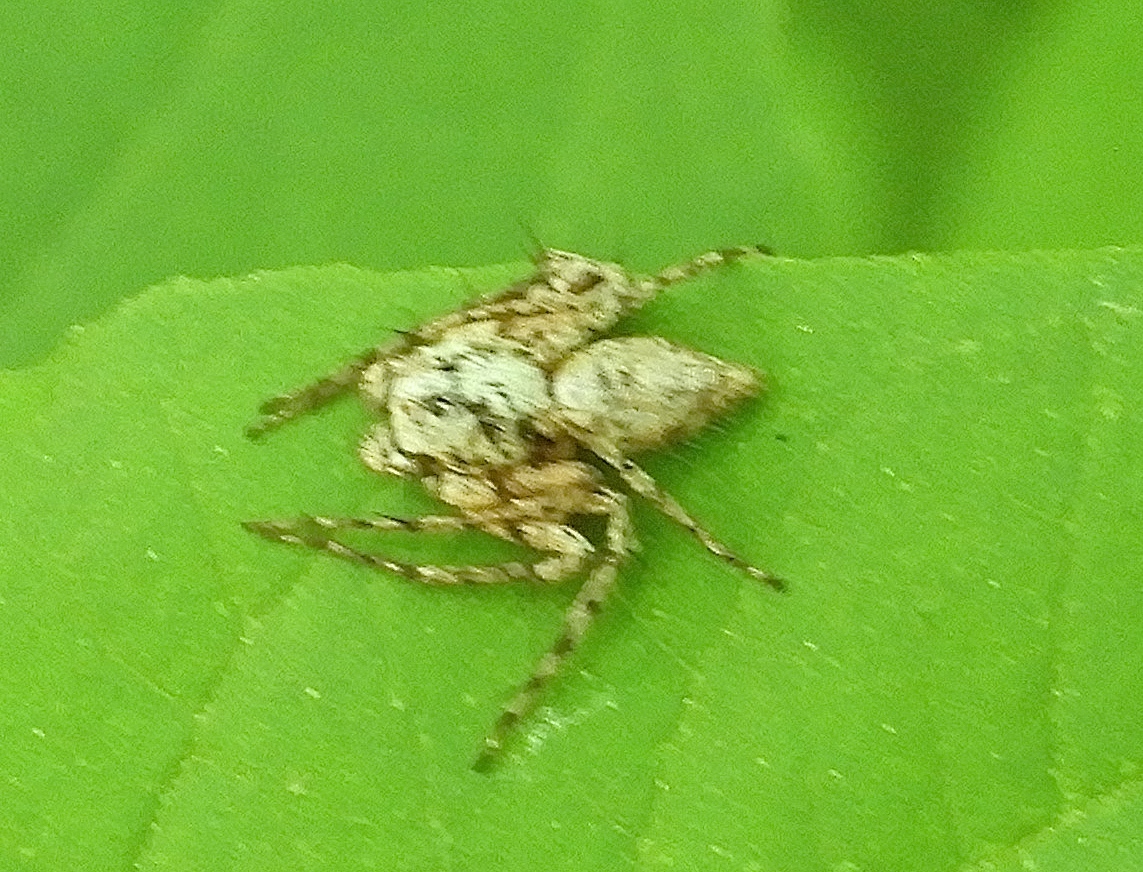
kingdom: Animalia
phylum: Arthropoda
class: Arachnida
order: Araneae
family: Oxyopidae
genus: Hamataliwa
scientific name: Hamataliwa
